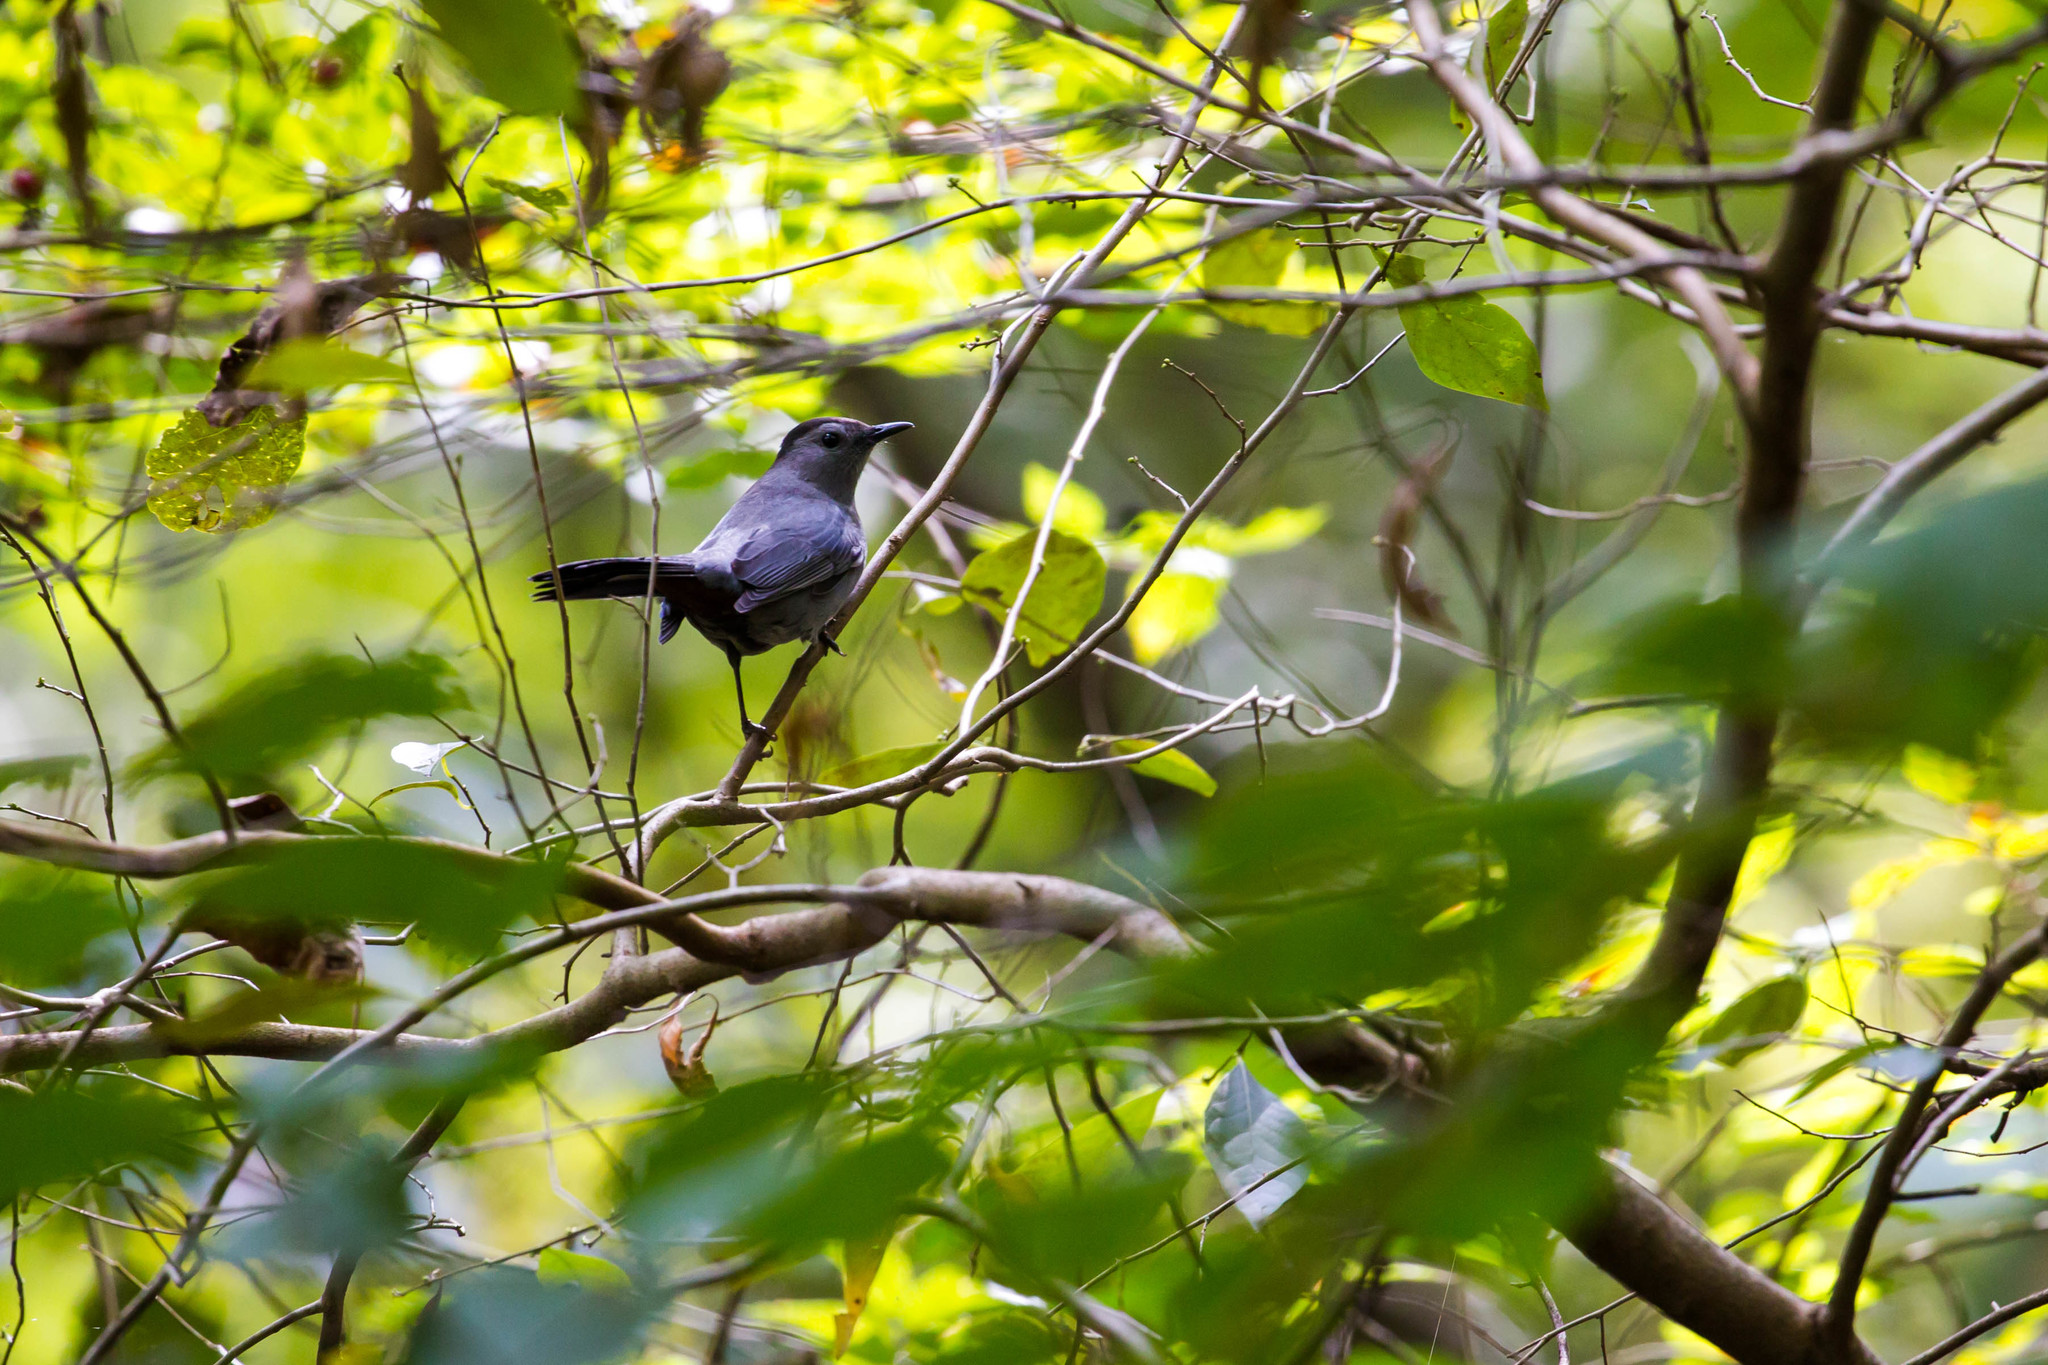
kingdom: Animalia
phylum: Chordata
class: Aves
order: Passeriformes
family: Mimidae
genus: Dumetella
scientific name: Dumetella carolinensis
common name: Gray catbird
